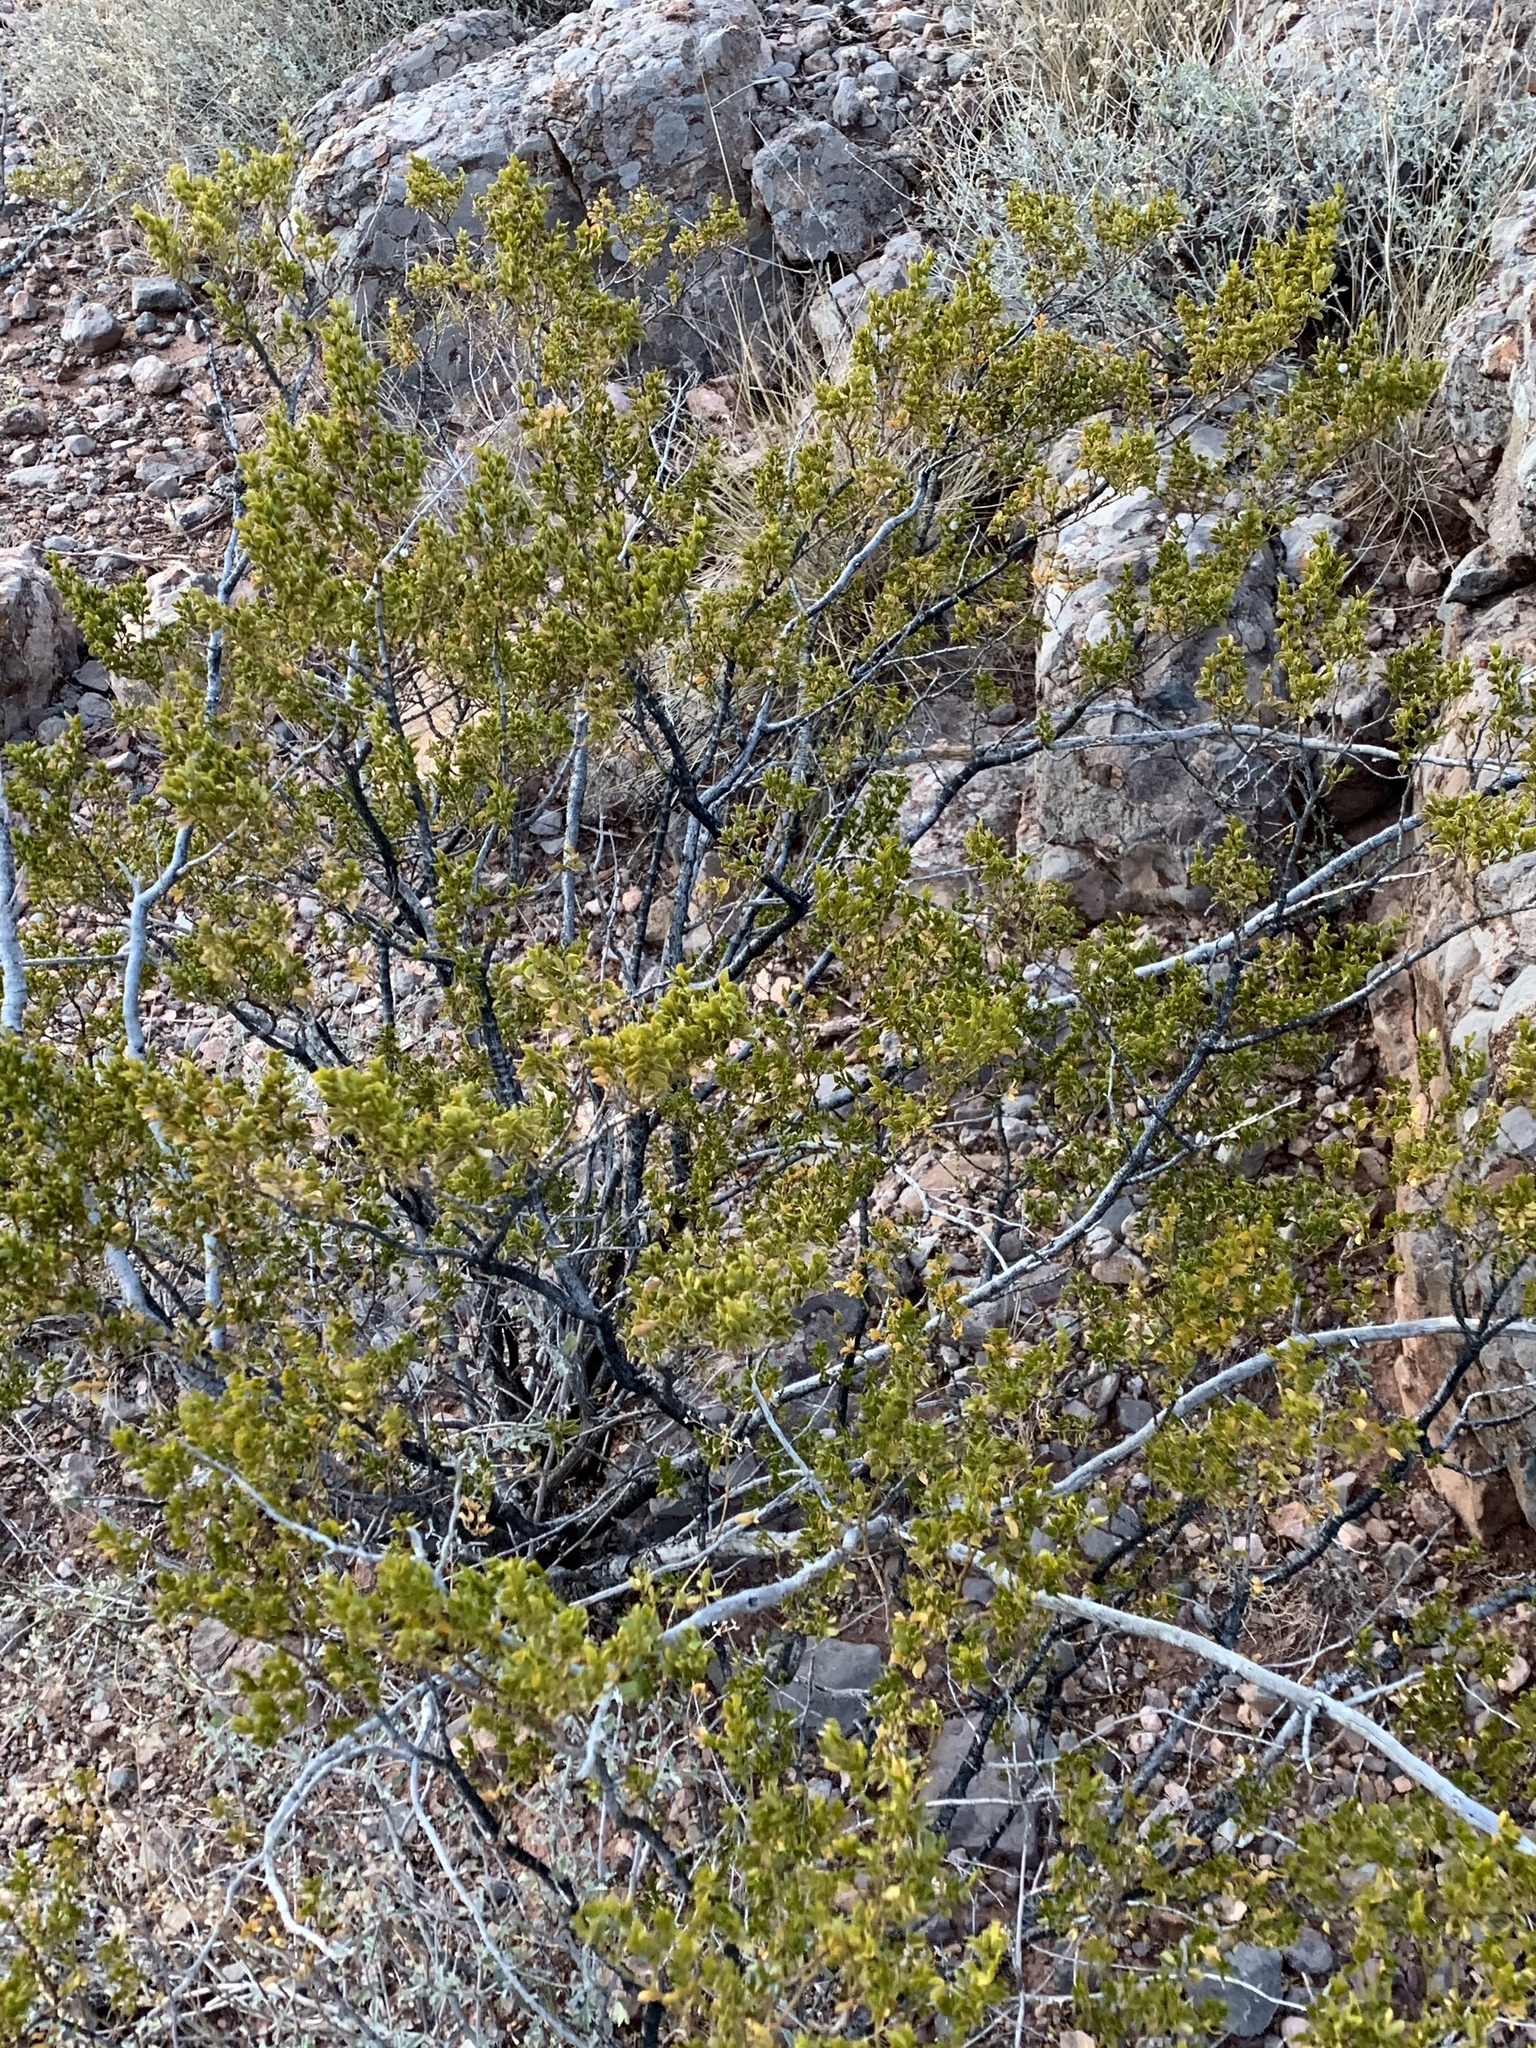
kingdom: Plantae
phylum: Tracheophyta
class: Magnoliopsida
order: Zygophyllales
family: Zygophyllaceae
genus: Larrea
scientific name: Larrea tridentata
